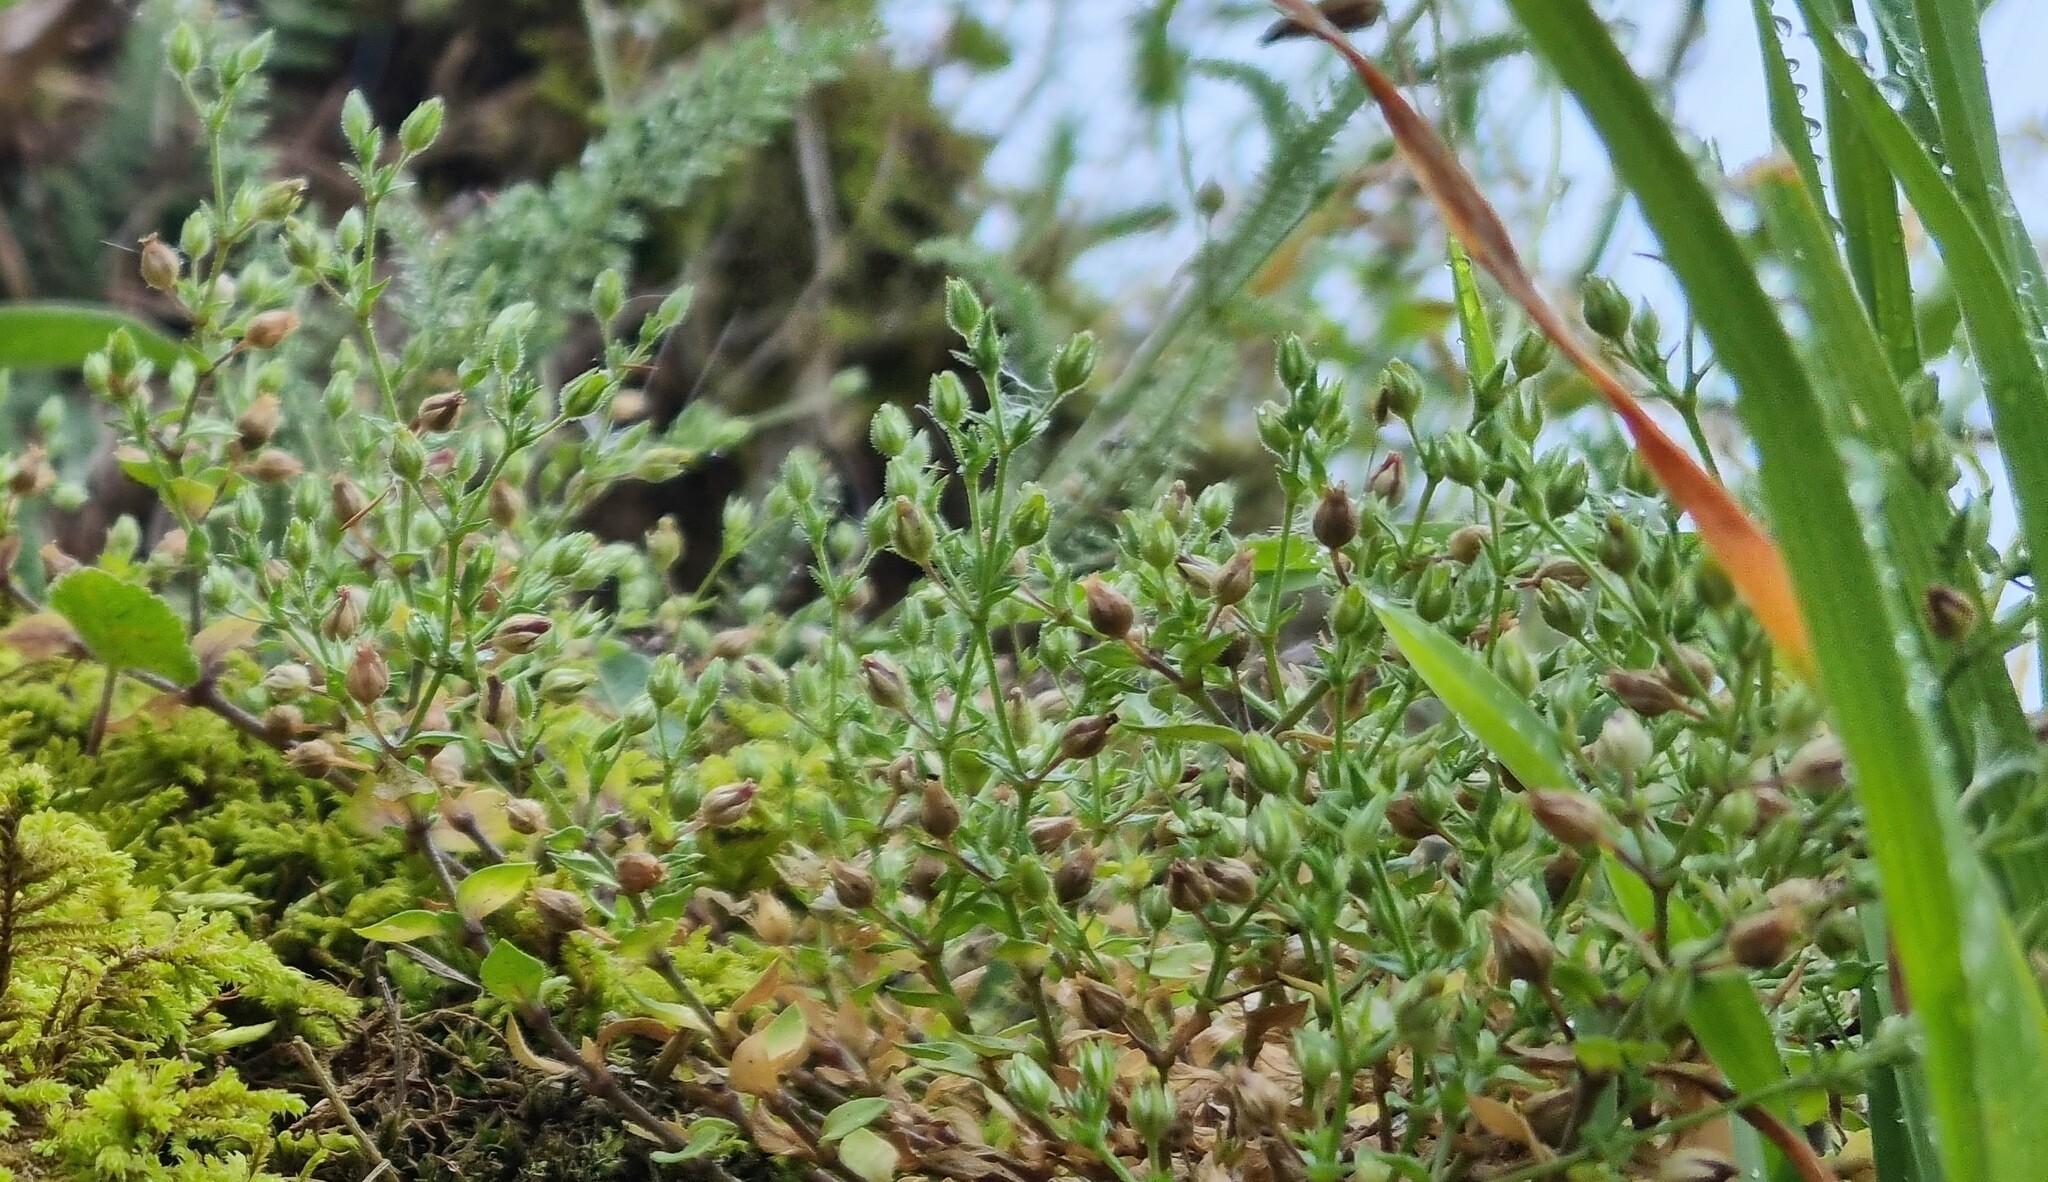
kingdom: Plantae
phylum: Tracheophyta
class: Magnoliopsida
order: Caryophyllales
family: Caryophyllaceae
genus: Arenaria
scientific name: Arenaria serpyllifolia
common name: Thyme-leaved sandwort
